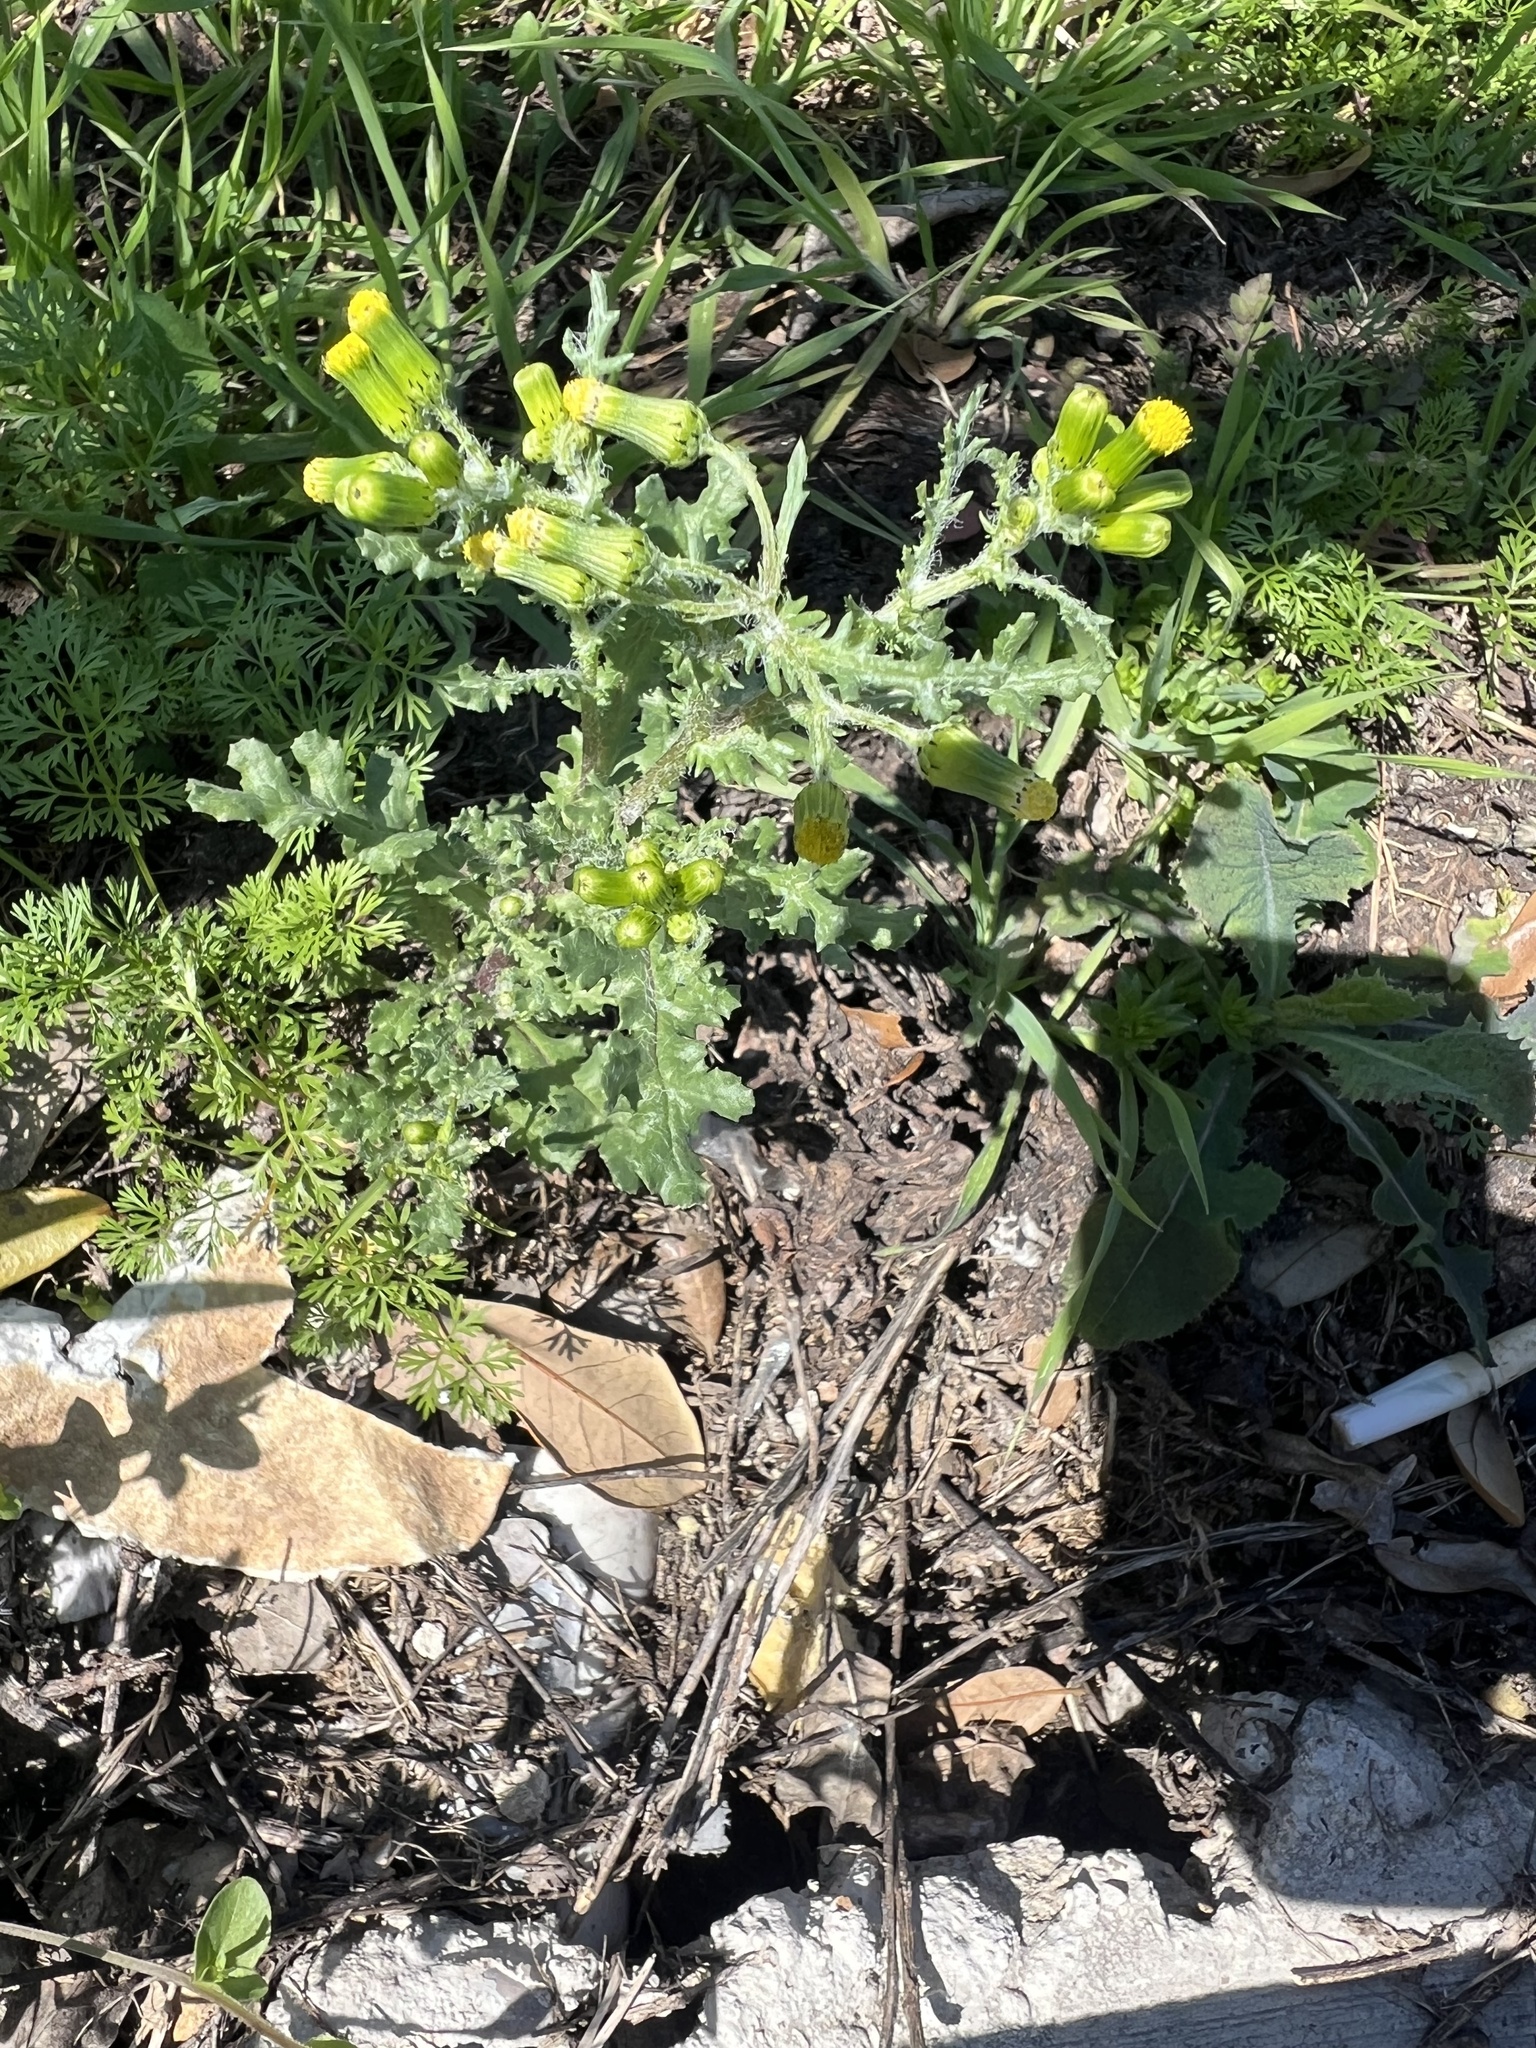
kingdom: Plantae
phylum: Tracheophyta
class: Magnoliopsida
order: Asterales
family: Asteraceae
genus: Senecio
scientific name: Senecio vulgaris
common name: Old-man-in-the-spring
